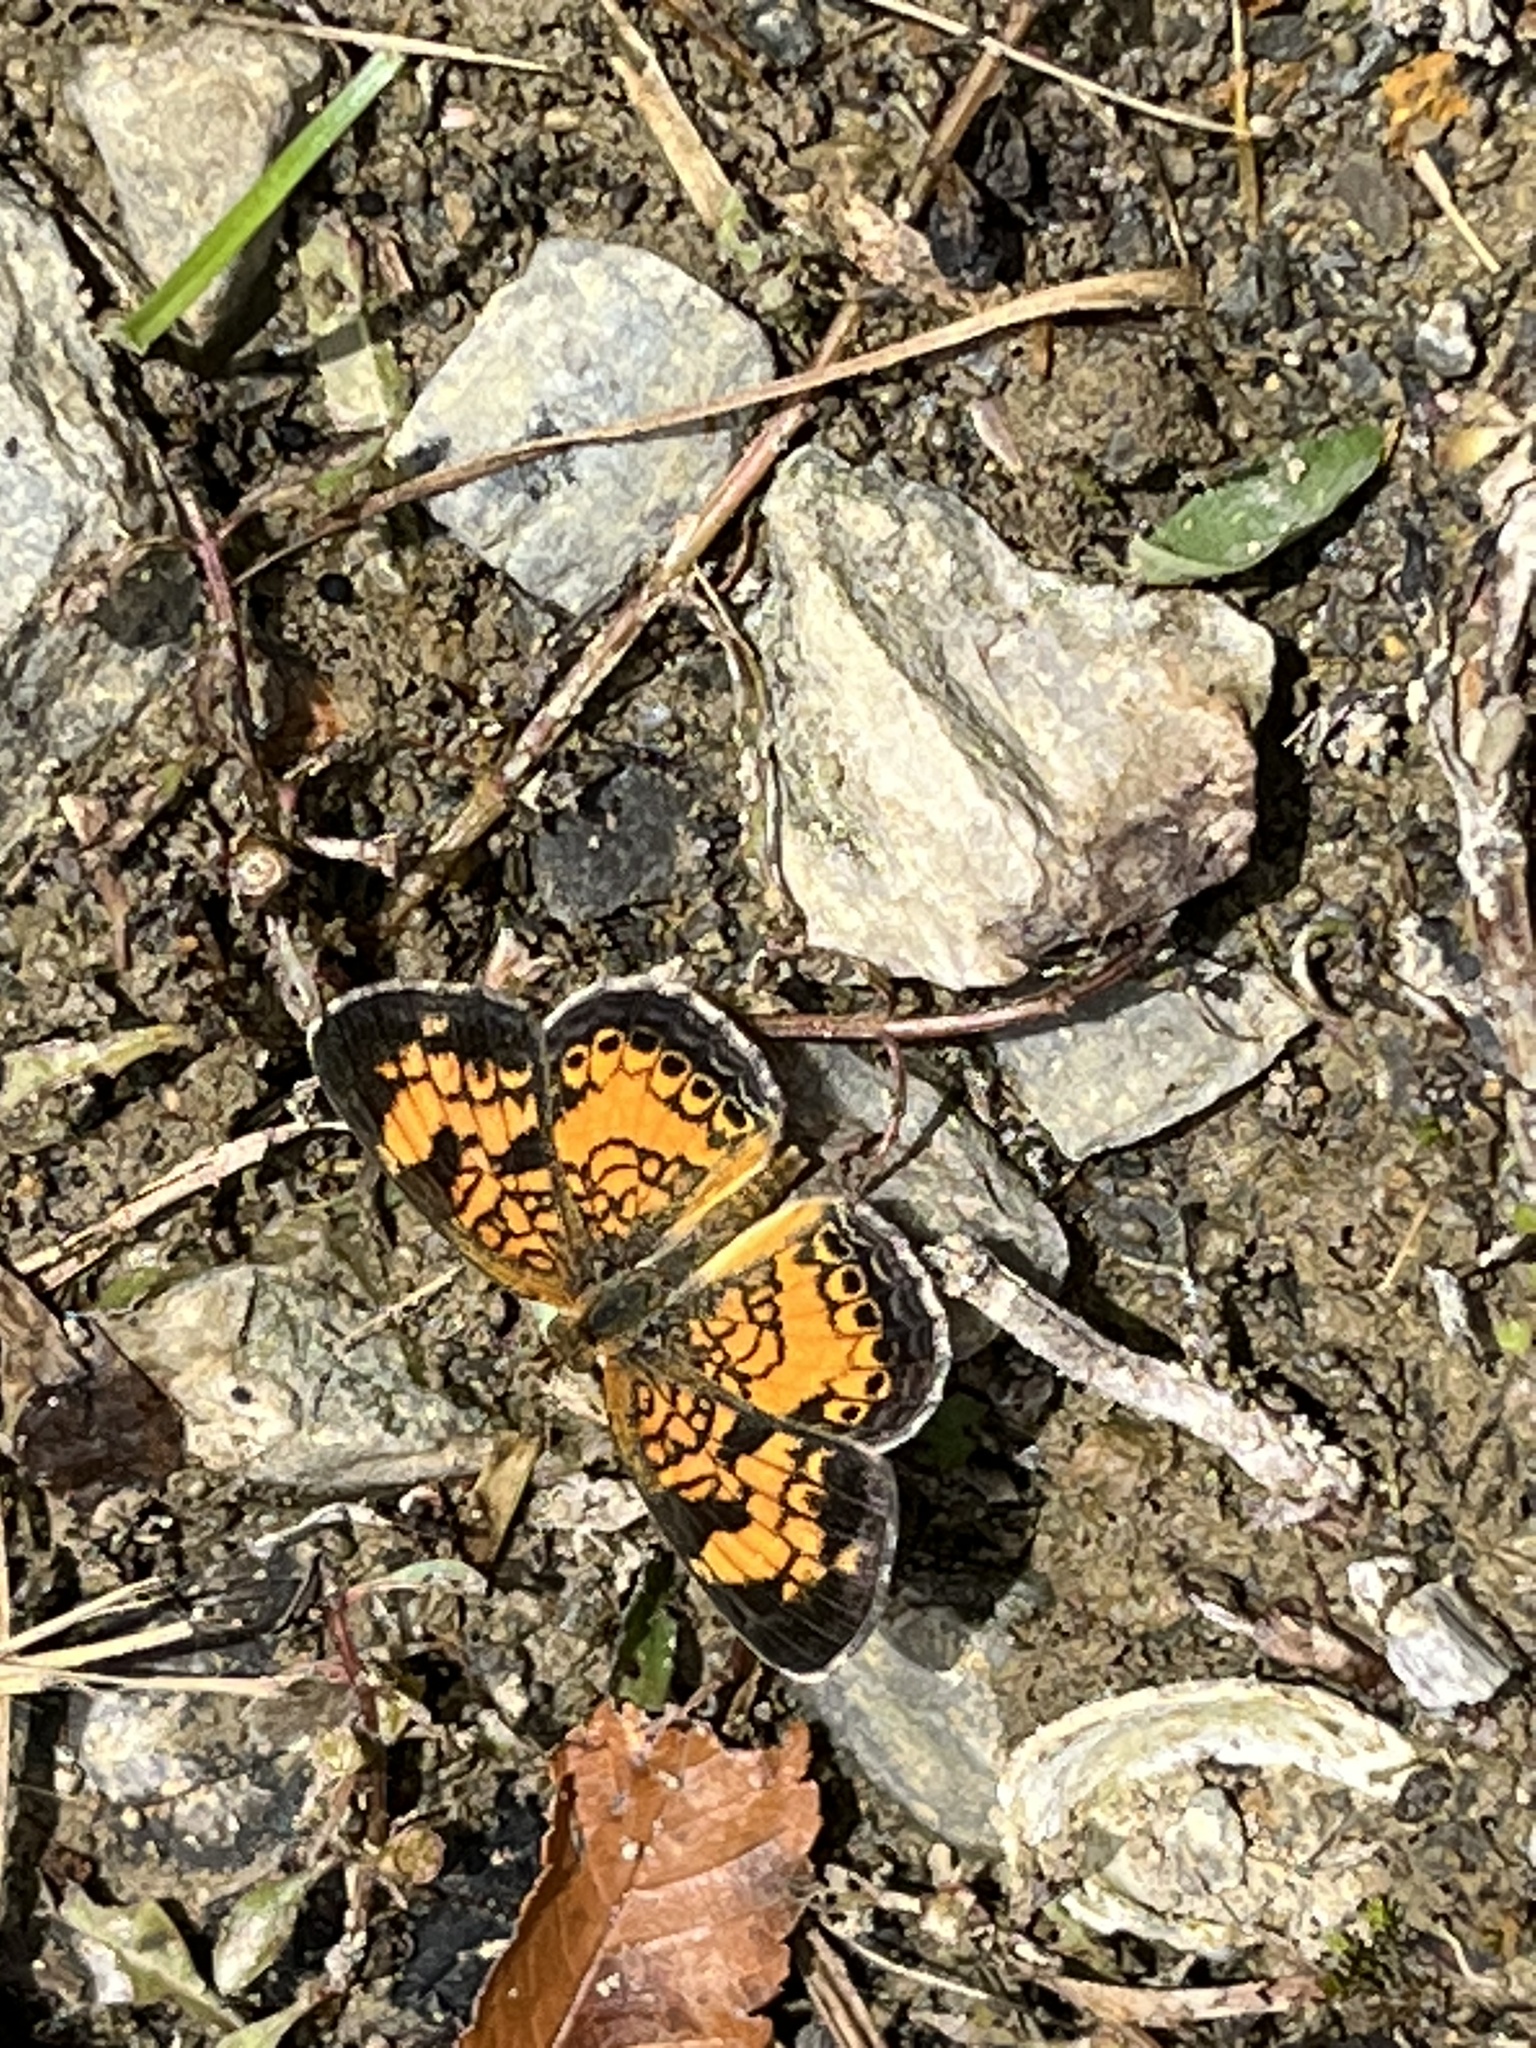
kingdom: Animalia
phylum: Arthropoda
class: Insecta
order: Lepidoptera
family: Nymphalidae
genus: Phyciodes
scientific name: Phyciodes tharos
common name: Pearl crescent
